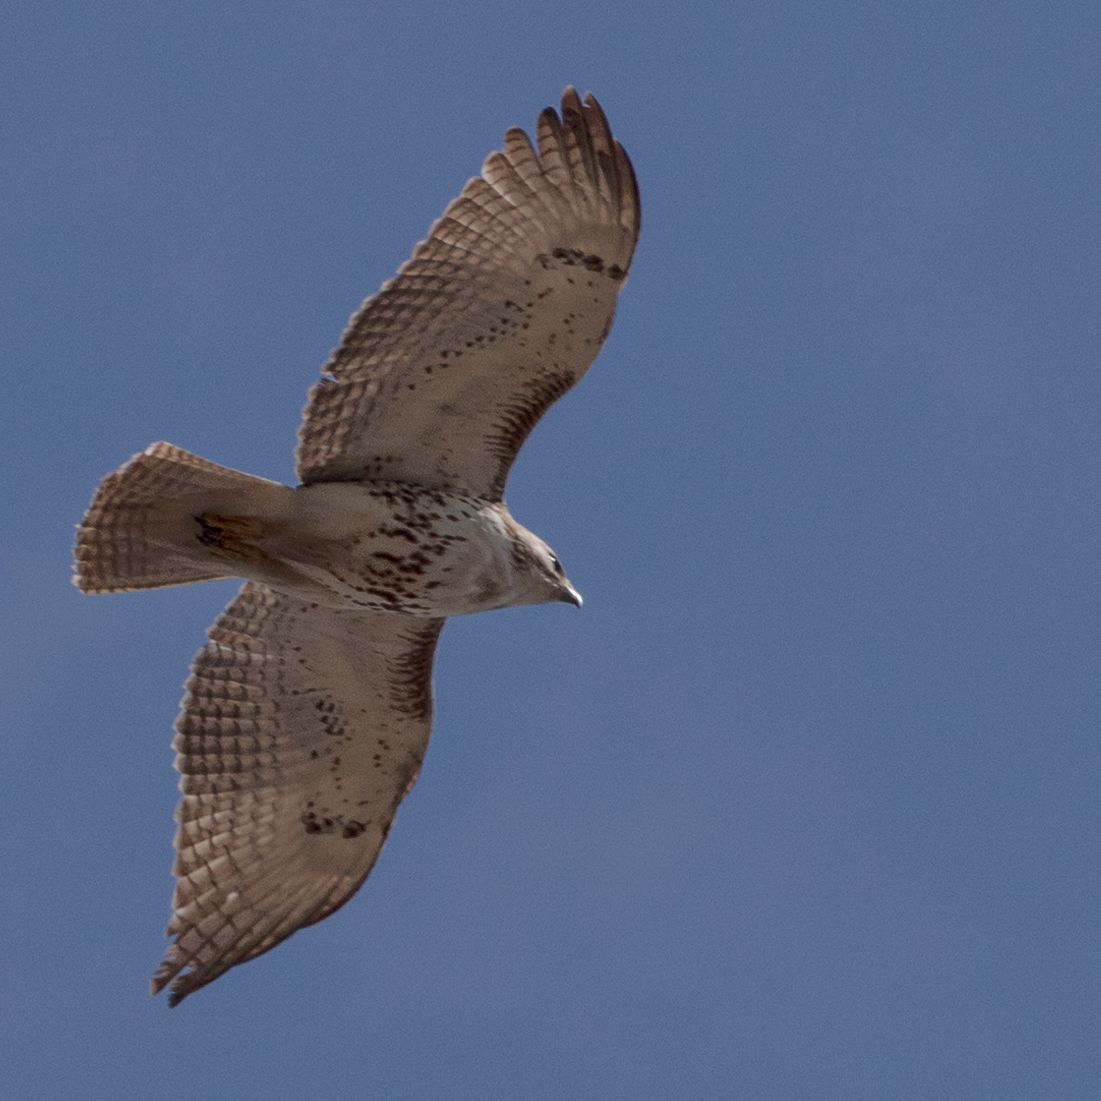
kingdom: Animalia
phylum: Chordata
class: Aves
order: Accipitriformes
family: Accipitridae
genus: Buteo
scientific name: Buteo jamaicensis
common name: Red-tailed hawk
